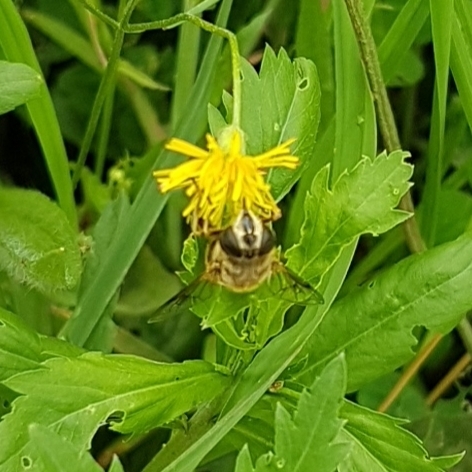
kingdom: Animalia
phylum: Arthropoda
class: Insecta
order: Diptera
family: Syrphidae
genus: Eristalis
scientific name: Eristalis tenax
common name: Drone fly
